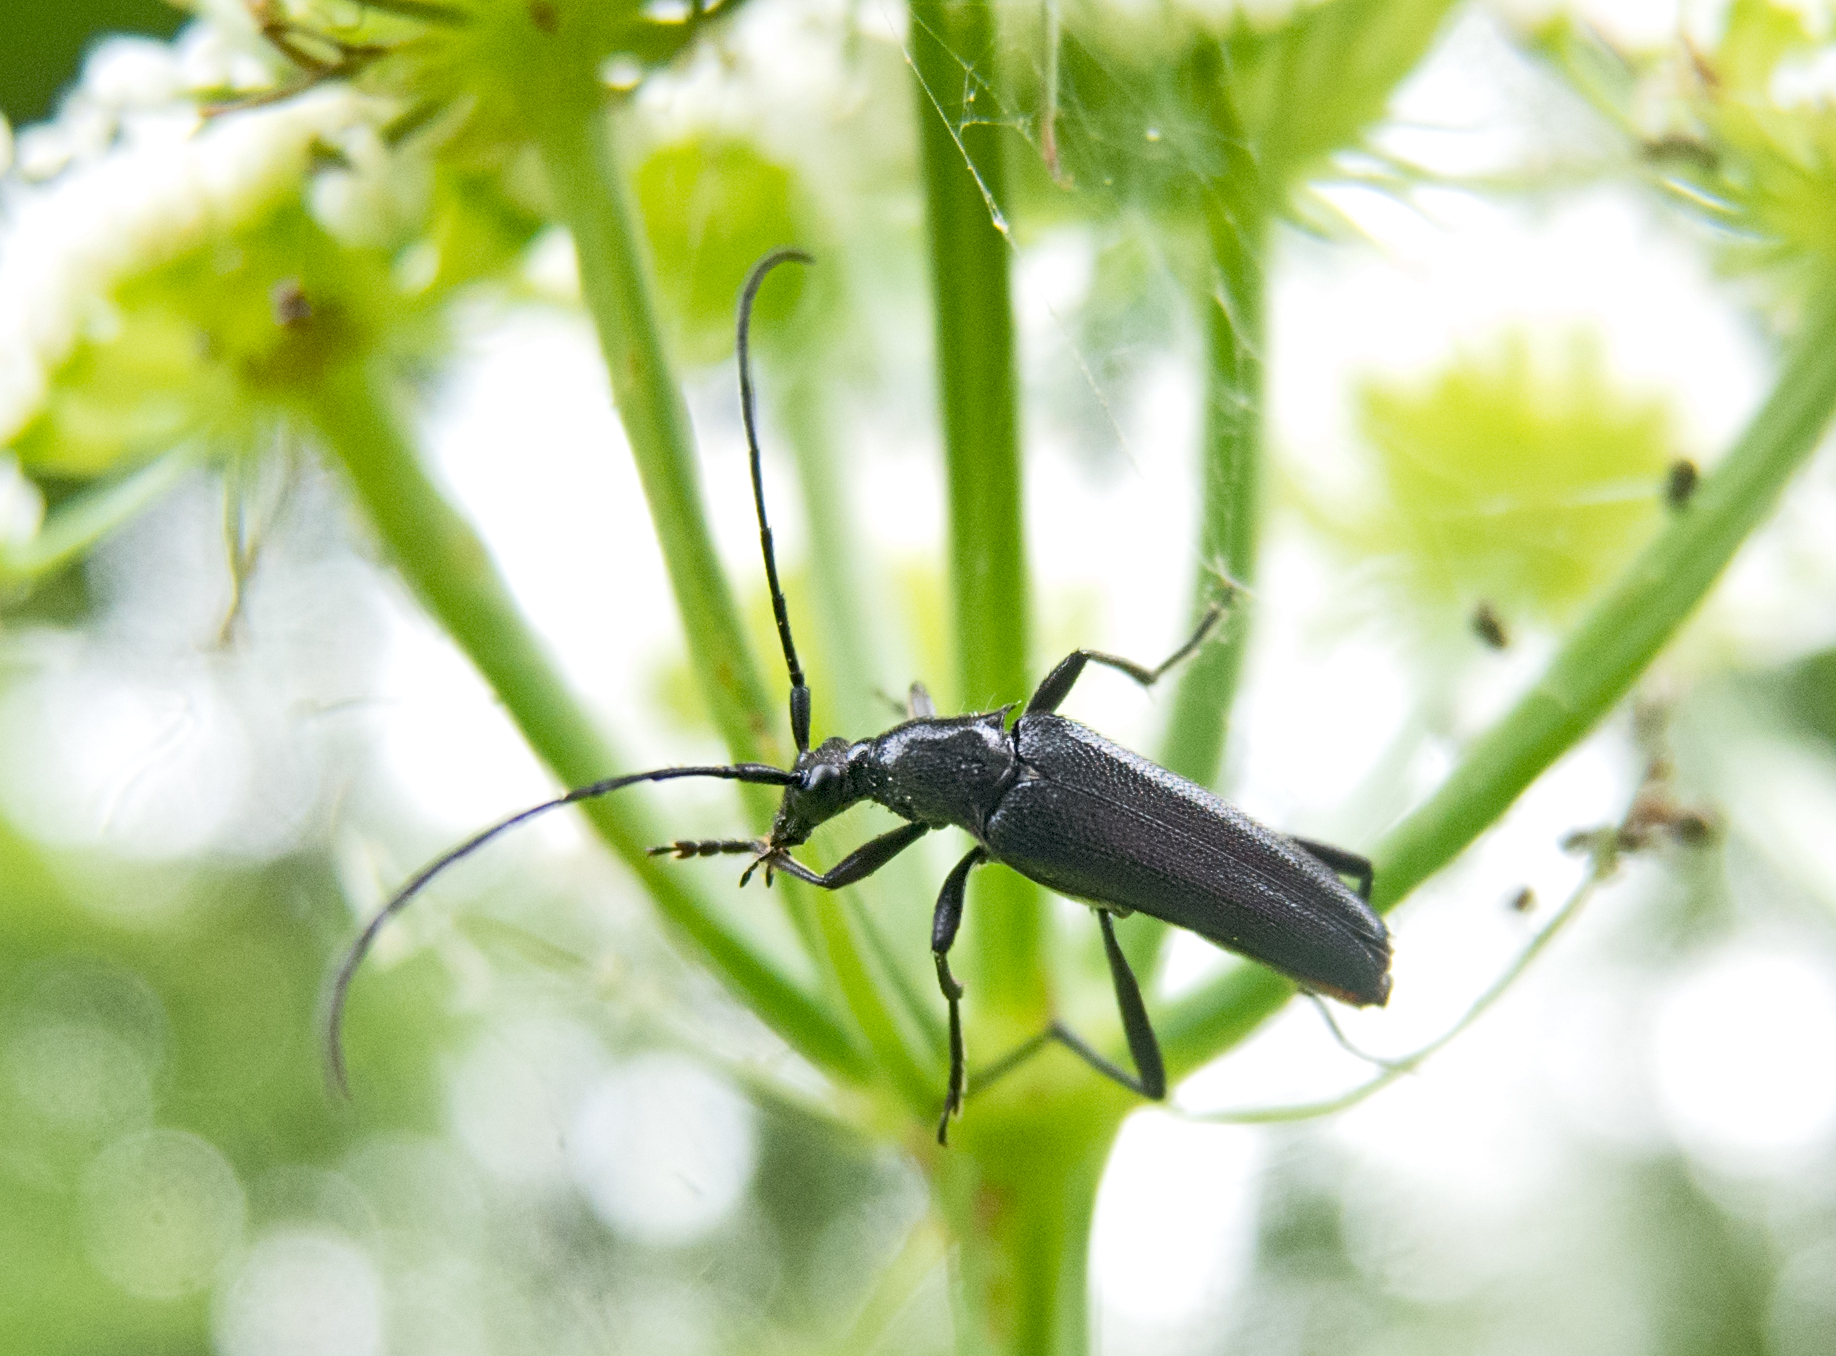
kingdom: Animalia
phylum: Arthropoda
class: Insecta
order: Coleoptera
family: Cerambycidae
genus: Stenurella
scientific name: Stenurella nigra
